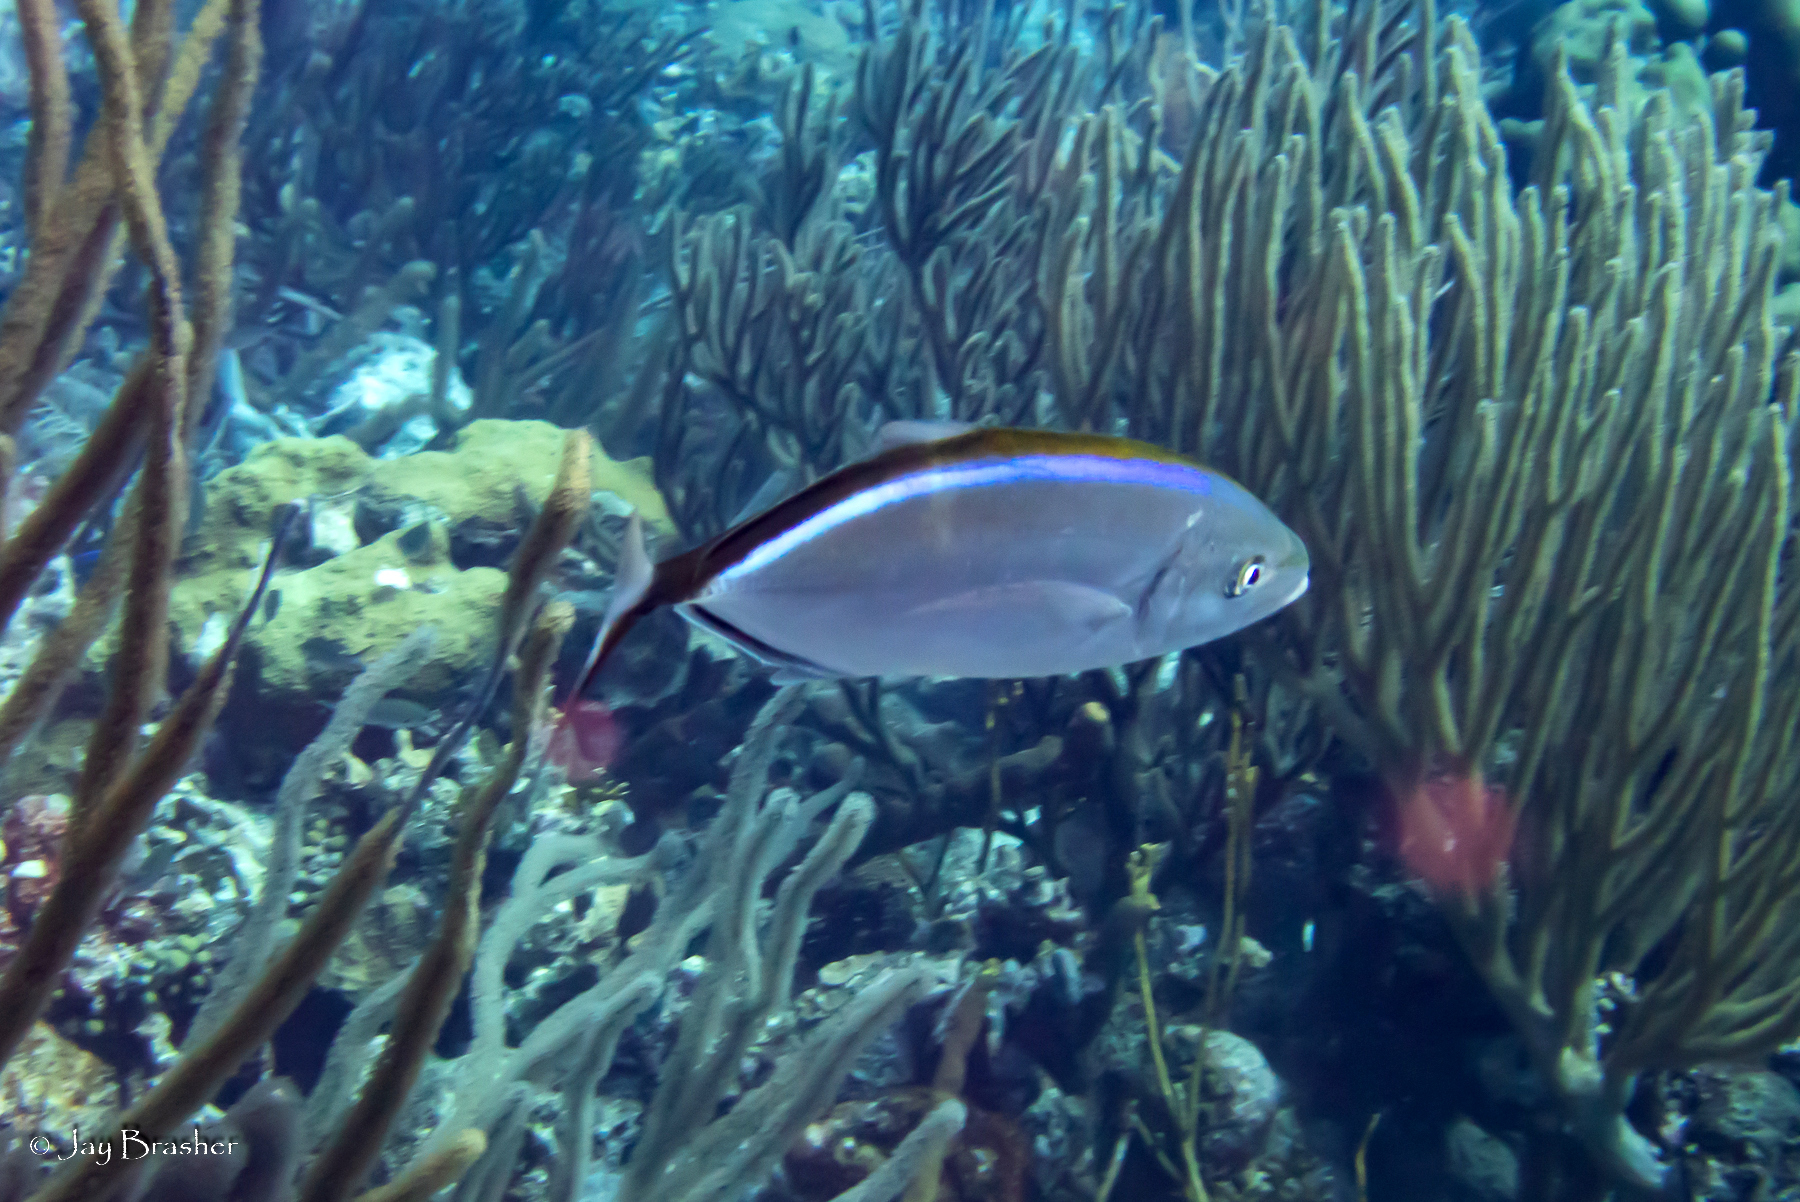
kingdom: Animalia
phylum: Chordata
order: Perciformes
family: Carangidae
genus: Caranx
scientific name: Caranx ruber
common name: Bar jack
